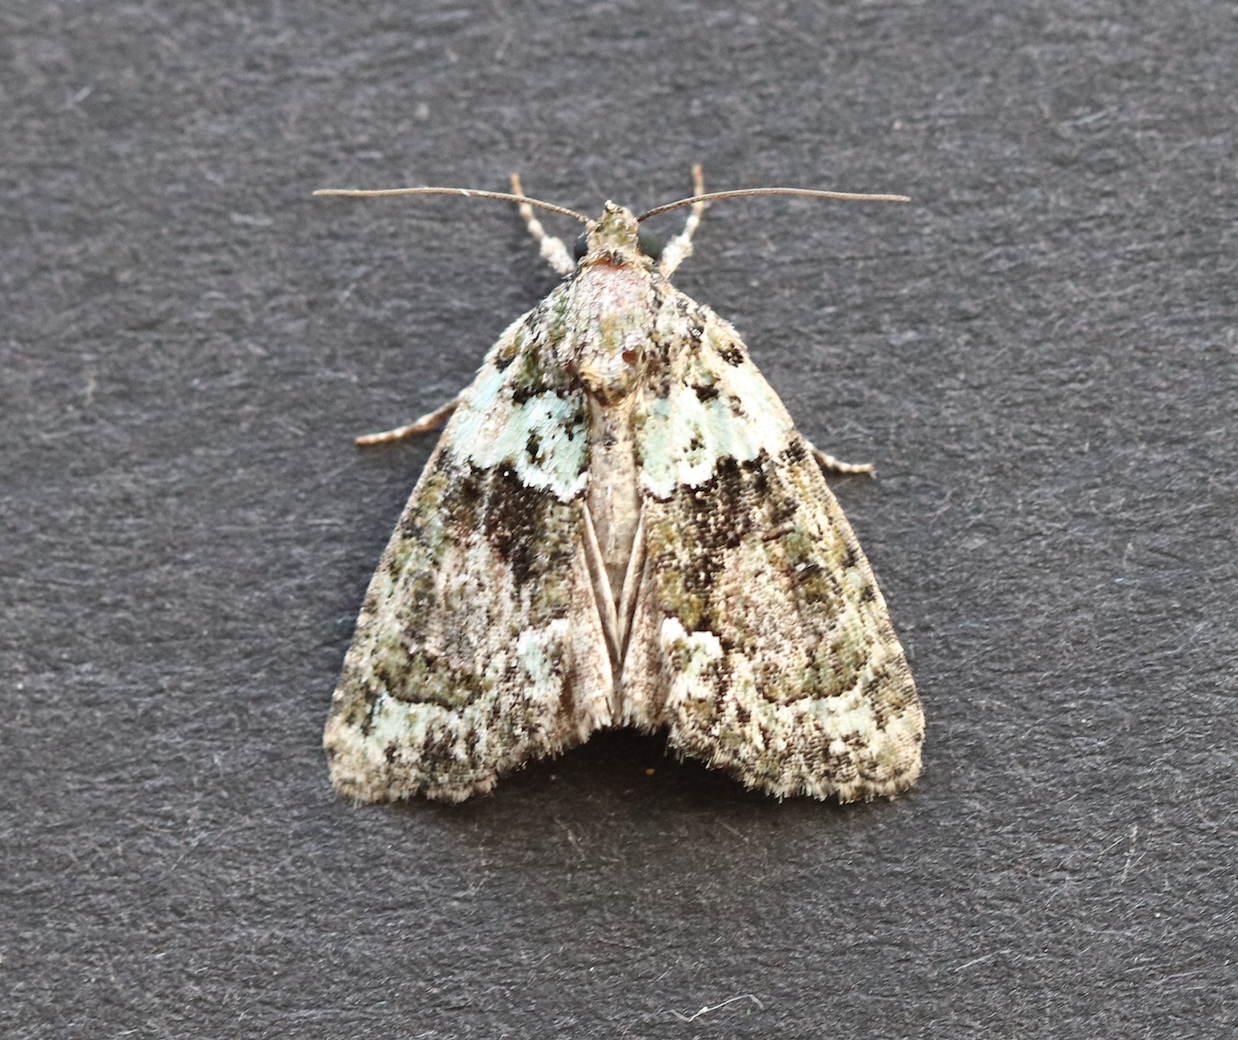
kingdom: Animalia
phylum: Arthropoda
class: Insecta
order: Lepidoptera
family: Noctuidae
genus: Cryphia
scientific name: Cryphia algae
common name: Tree-lichen beauty
